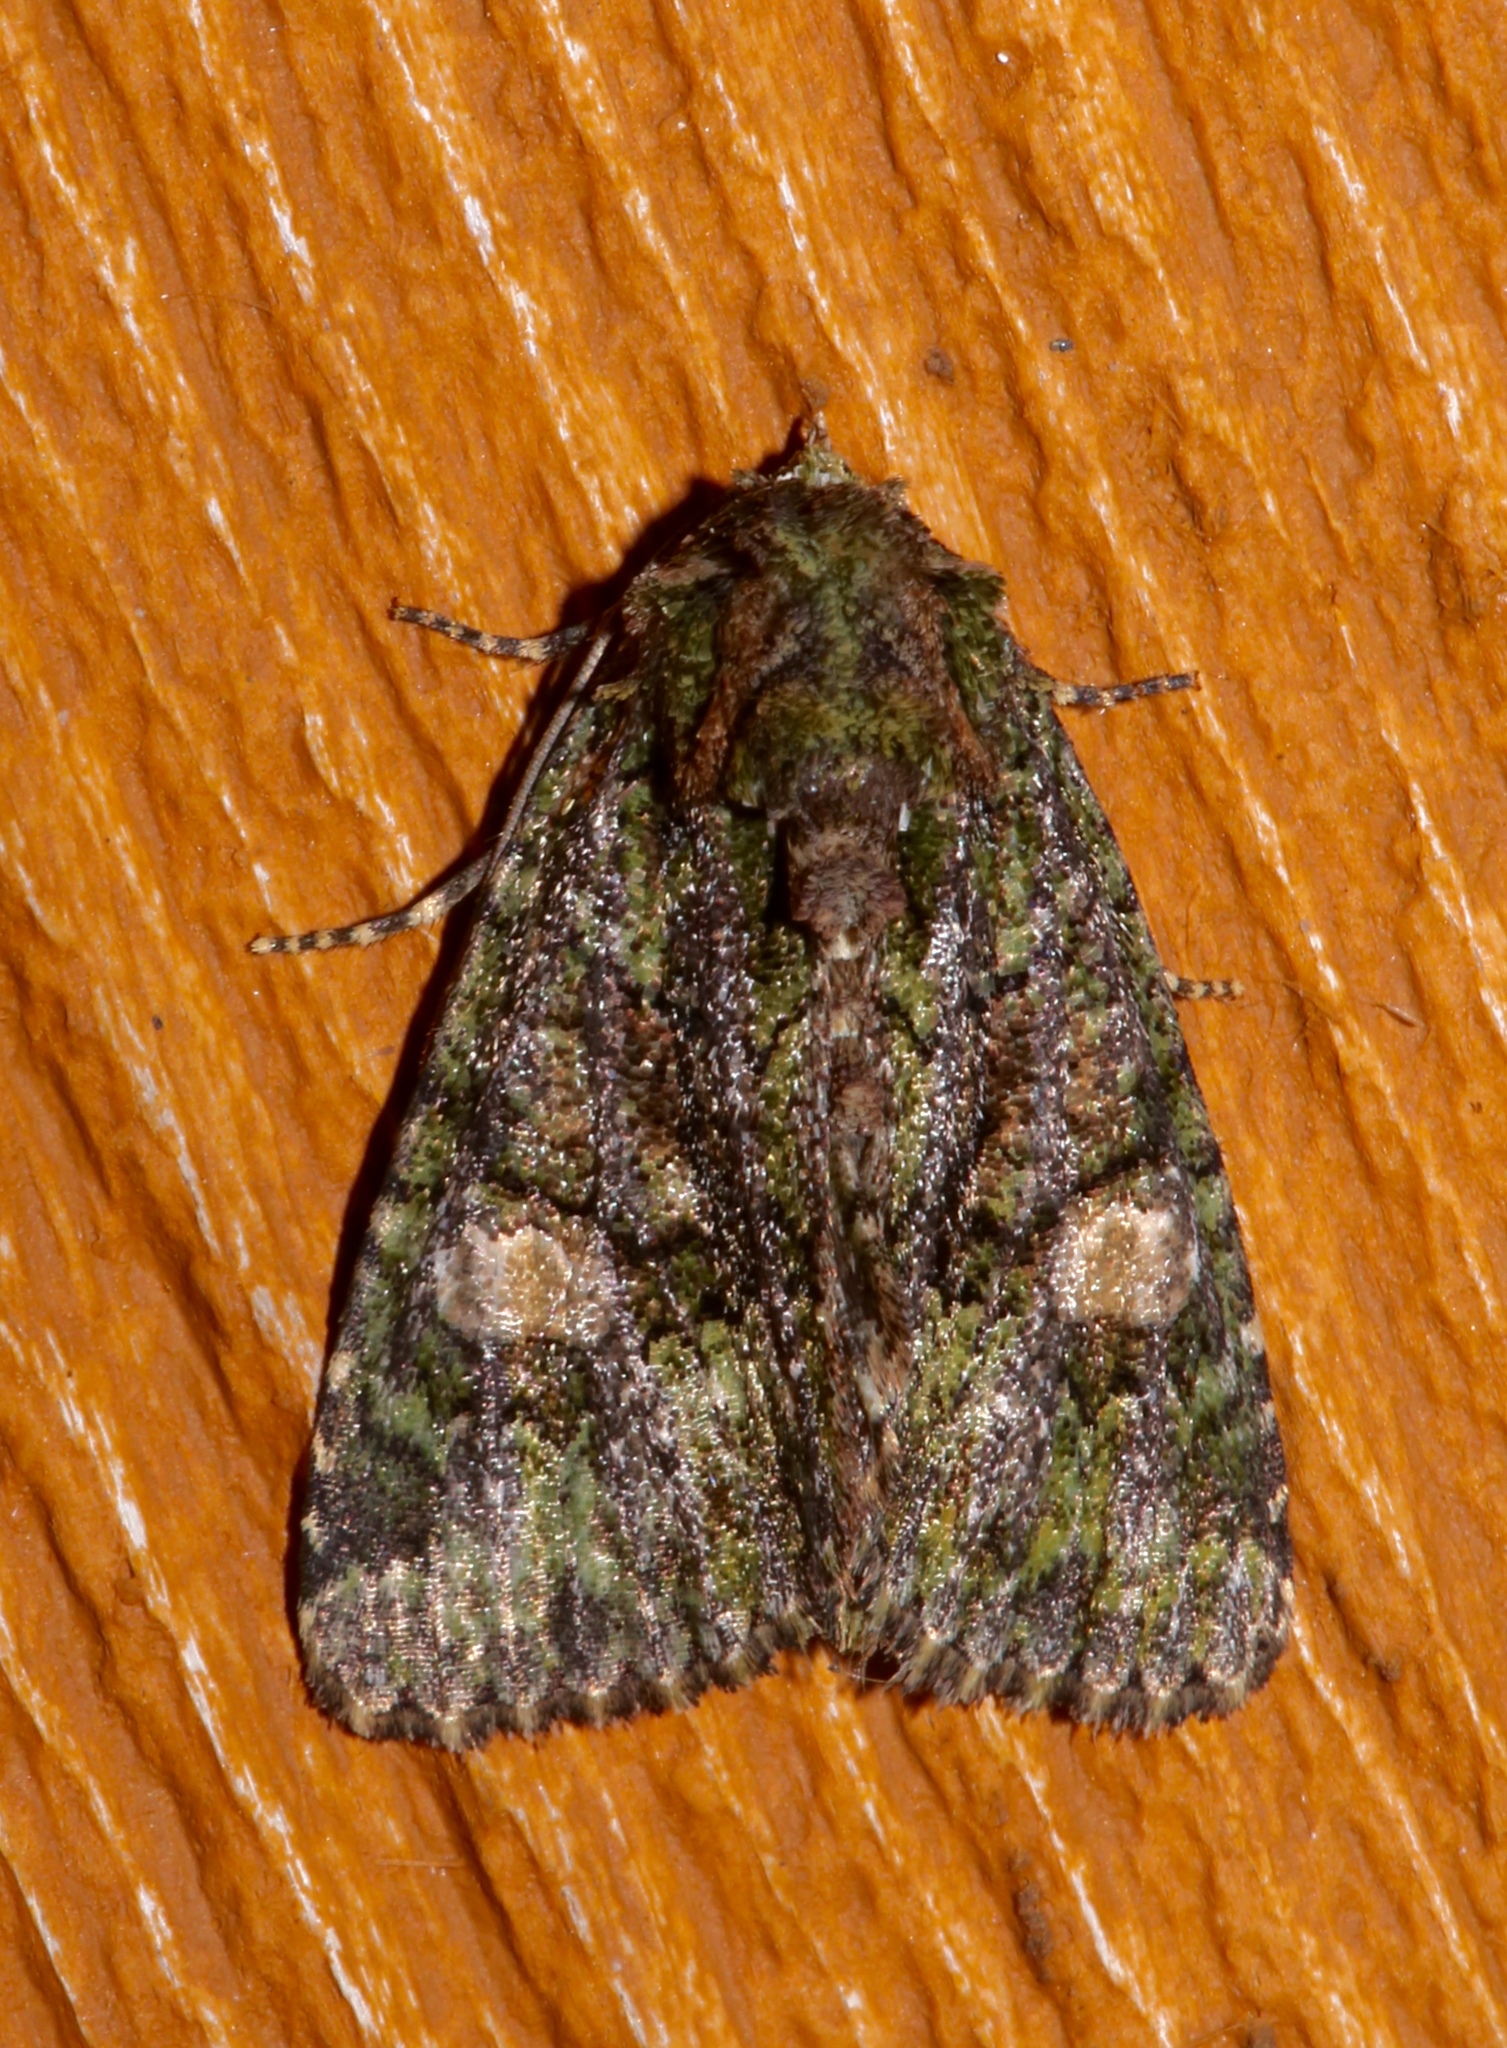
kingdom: Animalia
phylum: Arthropoda
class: Insecta
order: Lepidoptera
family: Noctuidae
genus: Phosphila
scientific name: Phosphila miselioides
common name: Spotted phosphila moth
